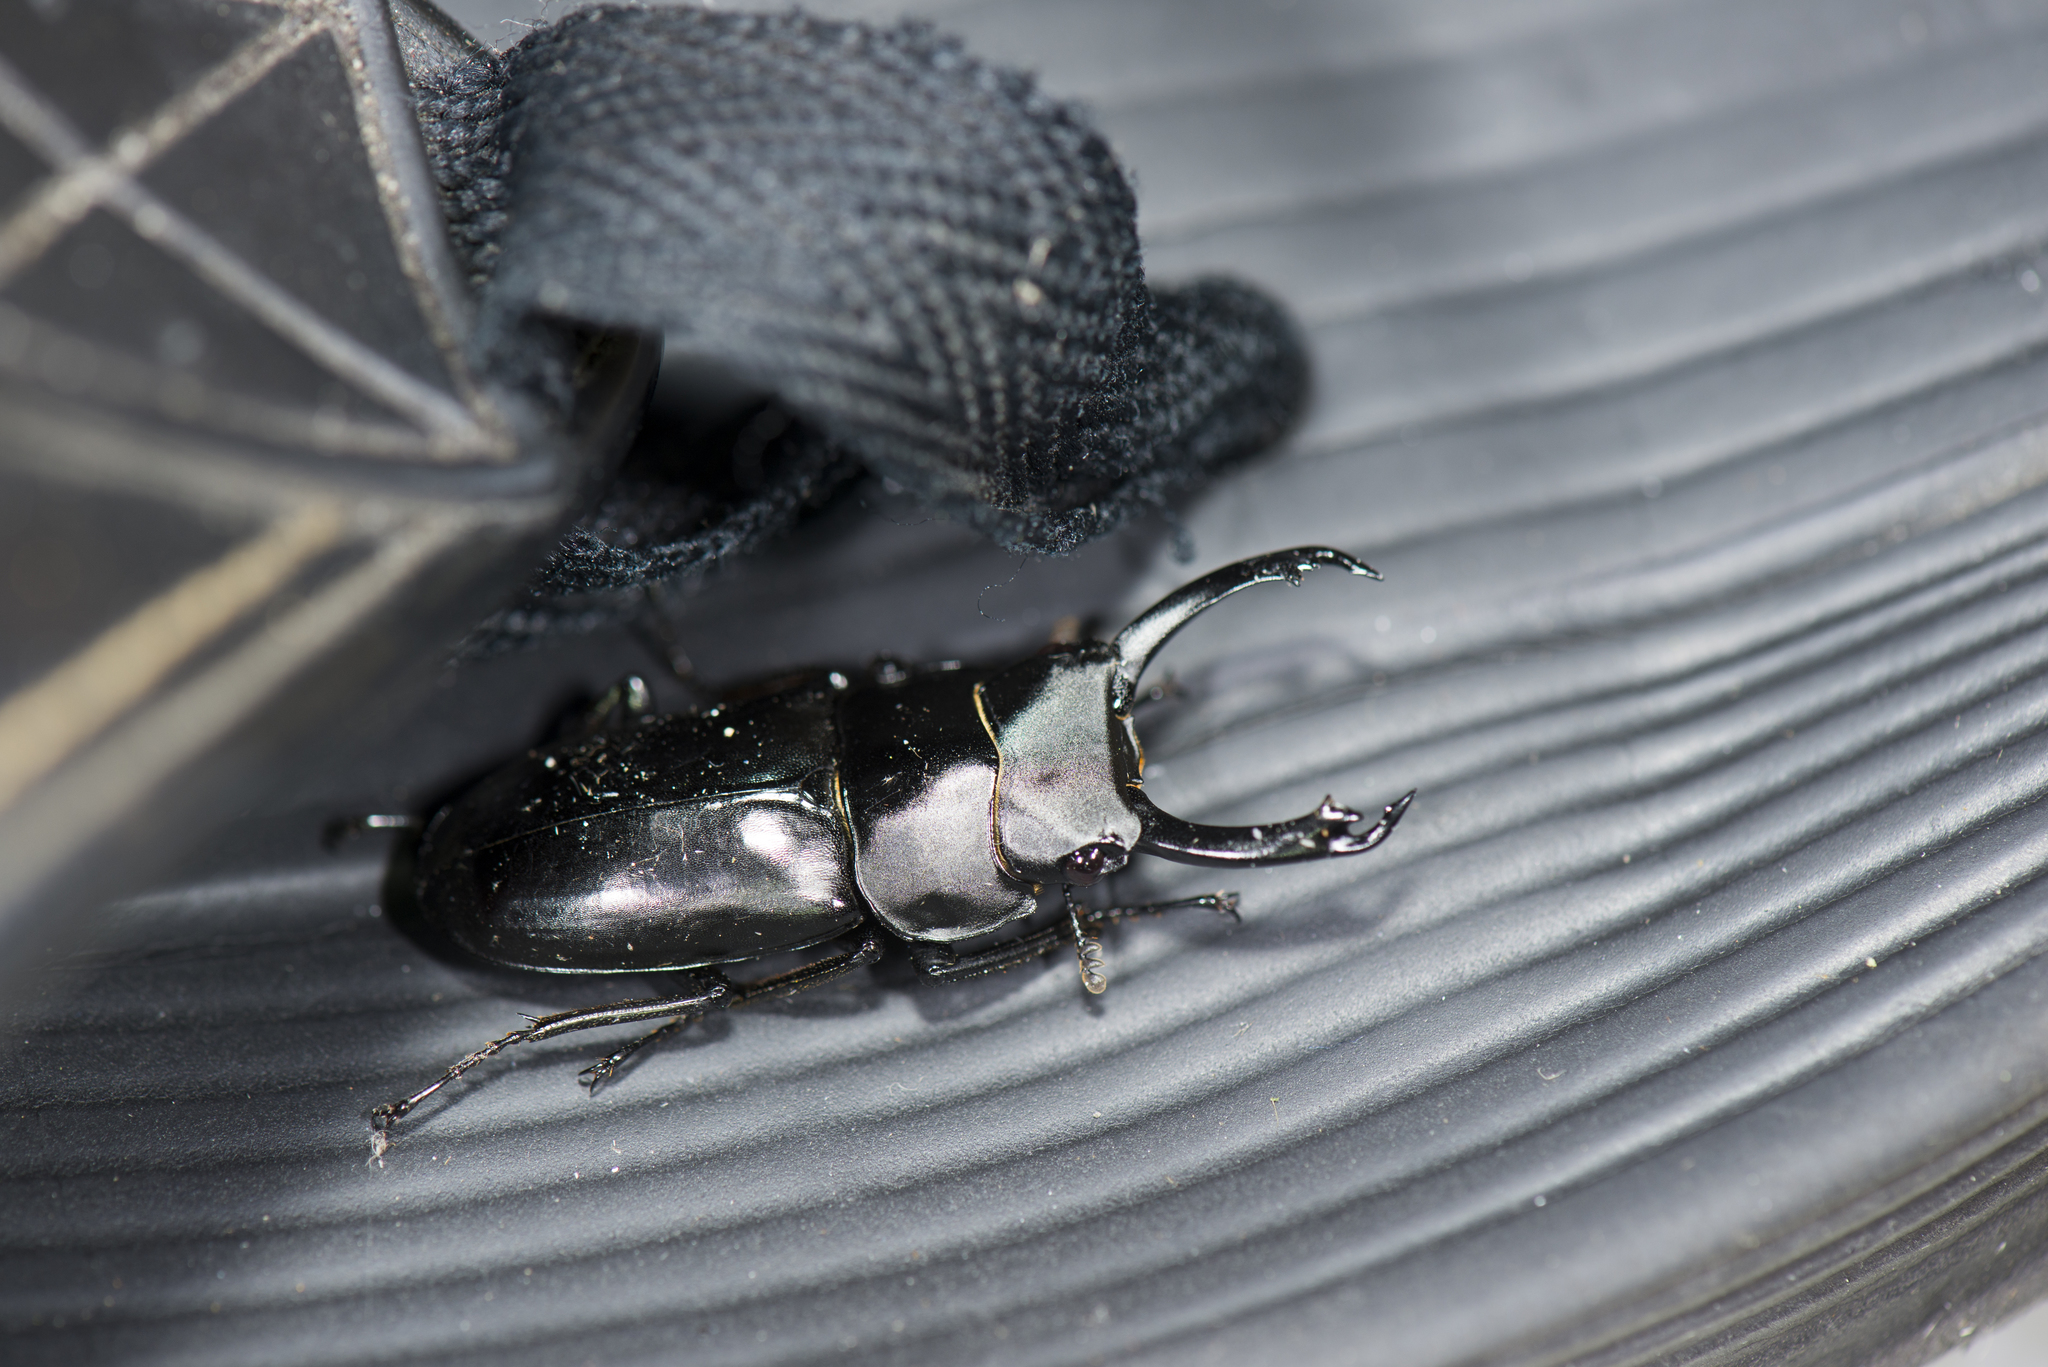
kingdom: Animalia
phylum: Arthropoda
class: Insecta
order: Coleoptera
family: Lucanidae
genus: Falcicornis
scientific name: Falcicornis tenuecostatus
